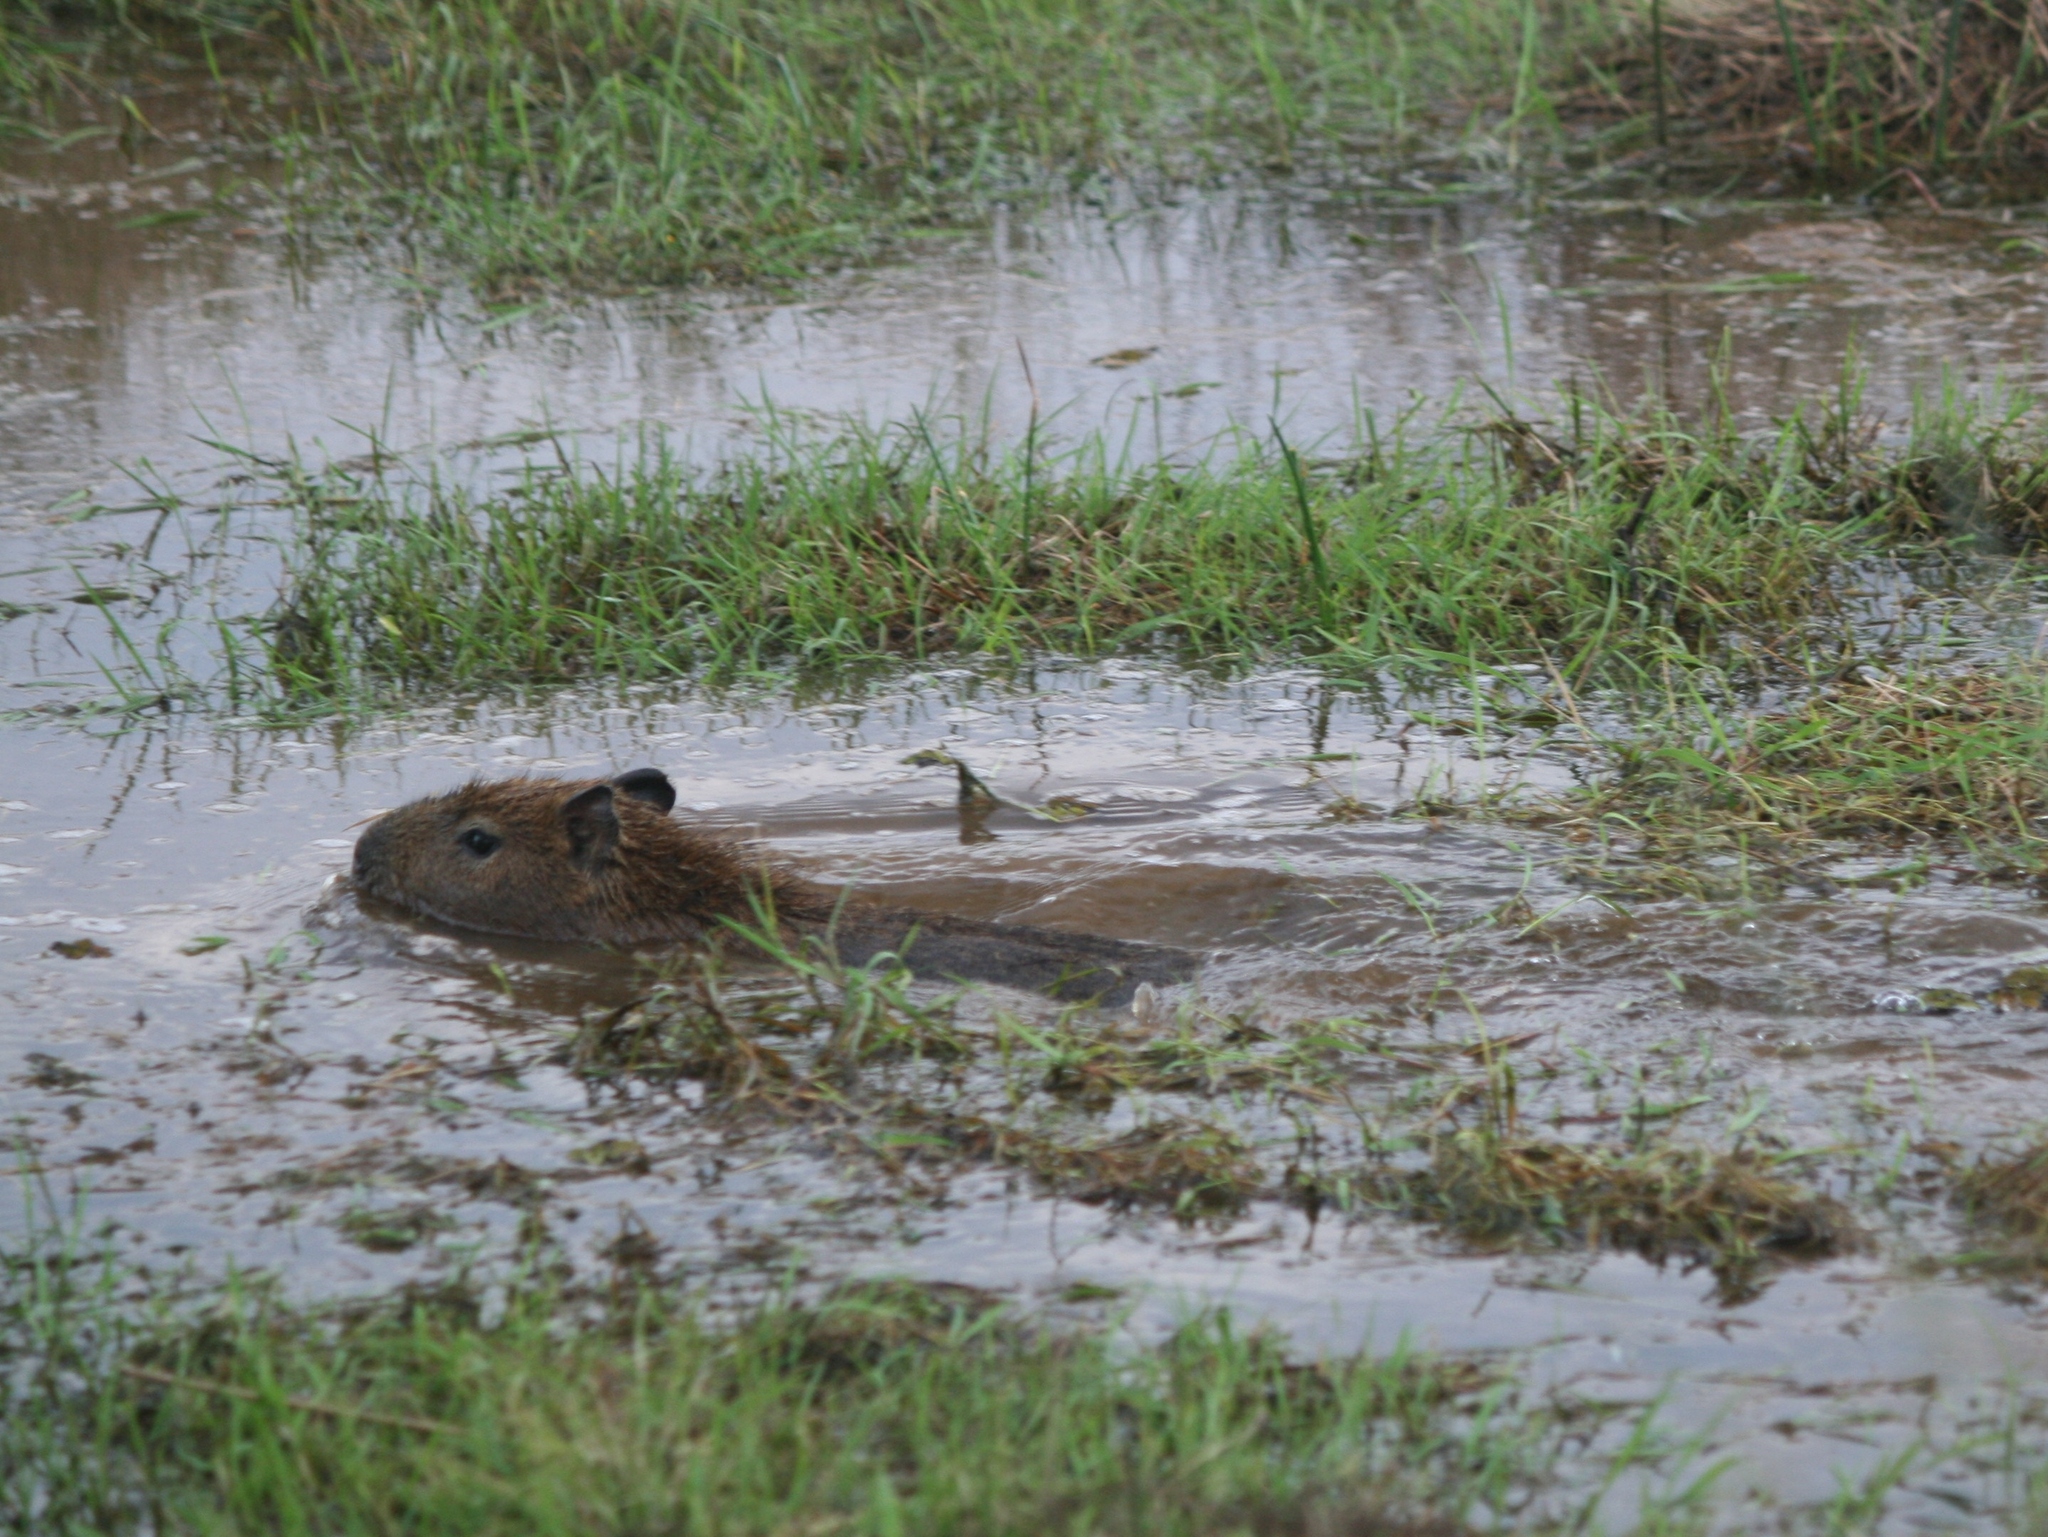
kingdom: Animalia
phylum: Chordata
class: Mammalia
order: Rodentia
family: Caviidae
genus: Hydrochoerus
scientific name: Hydrochoerus hydrochaeris
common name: Capybara
